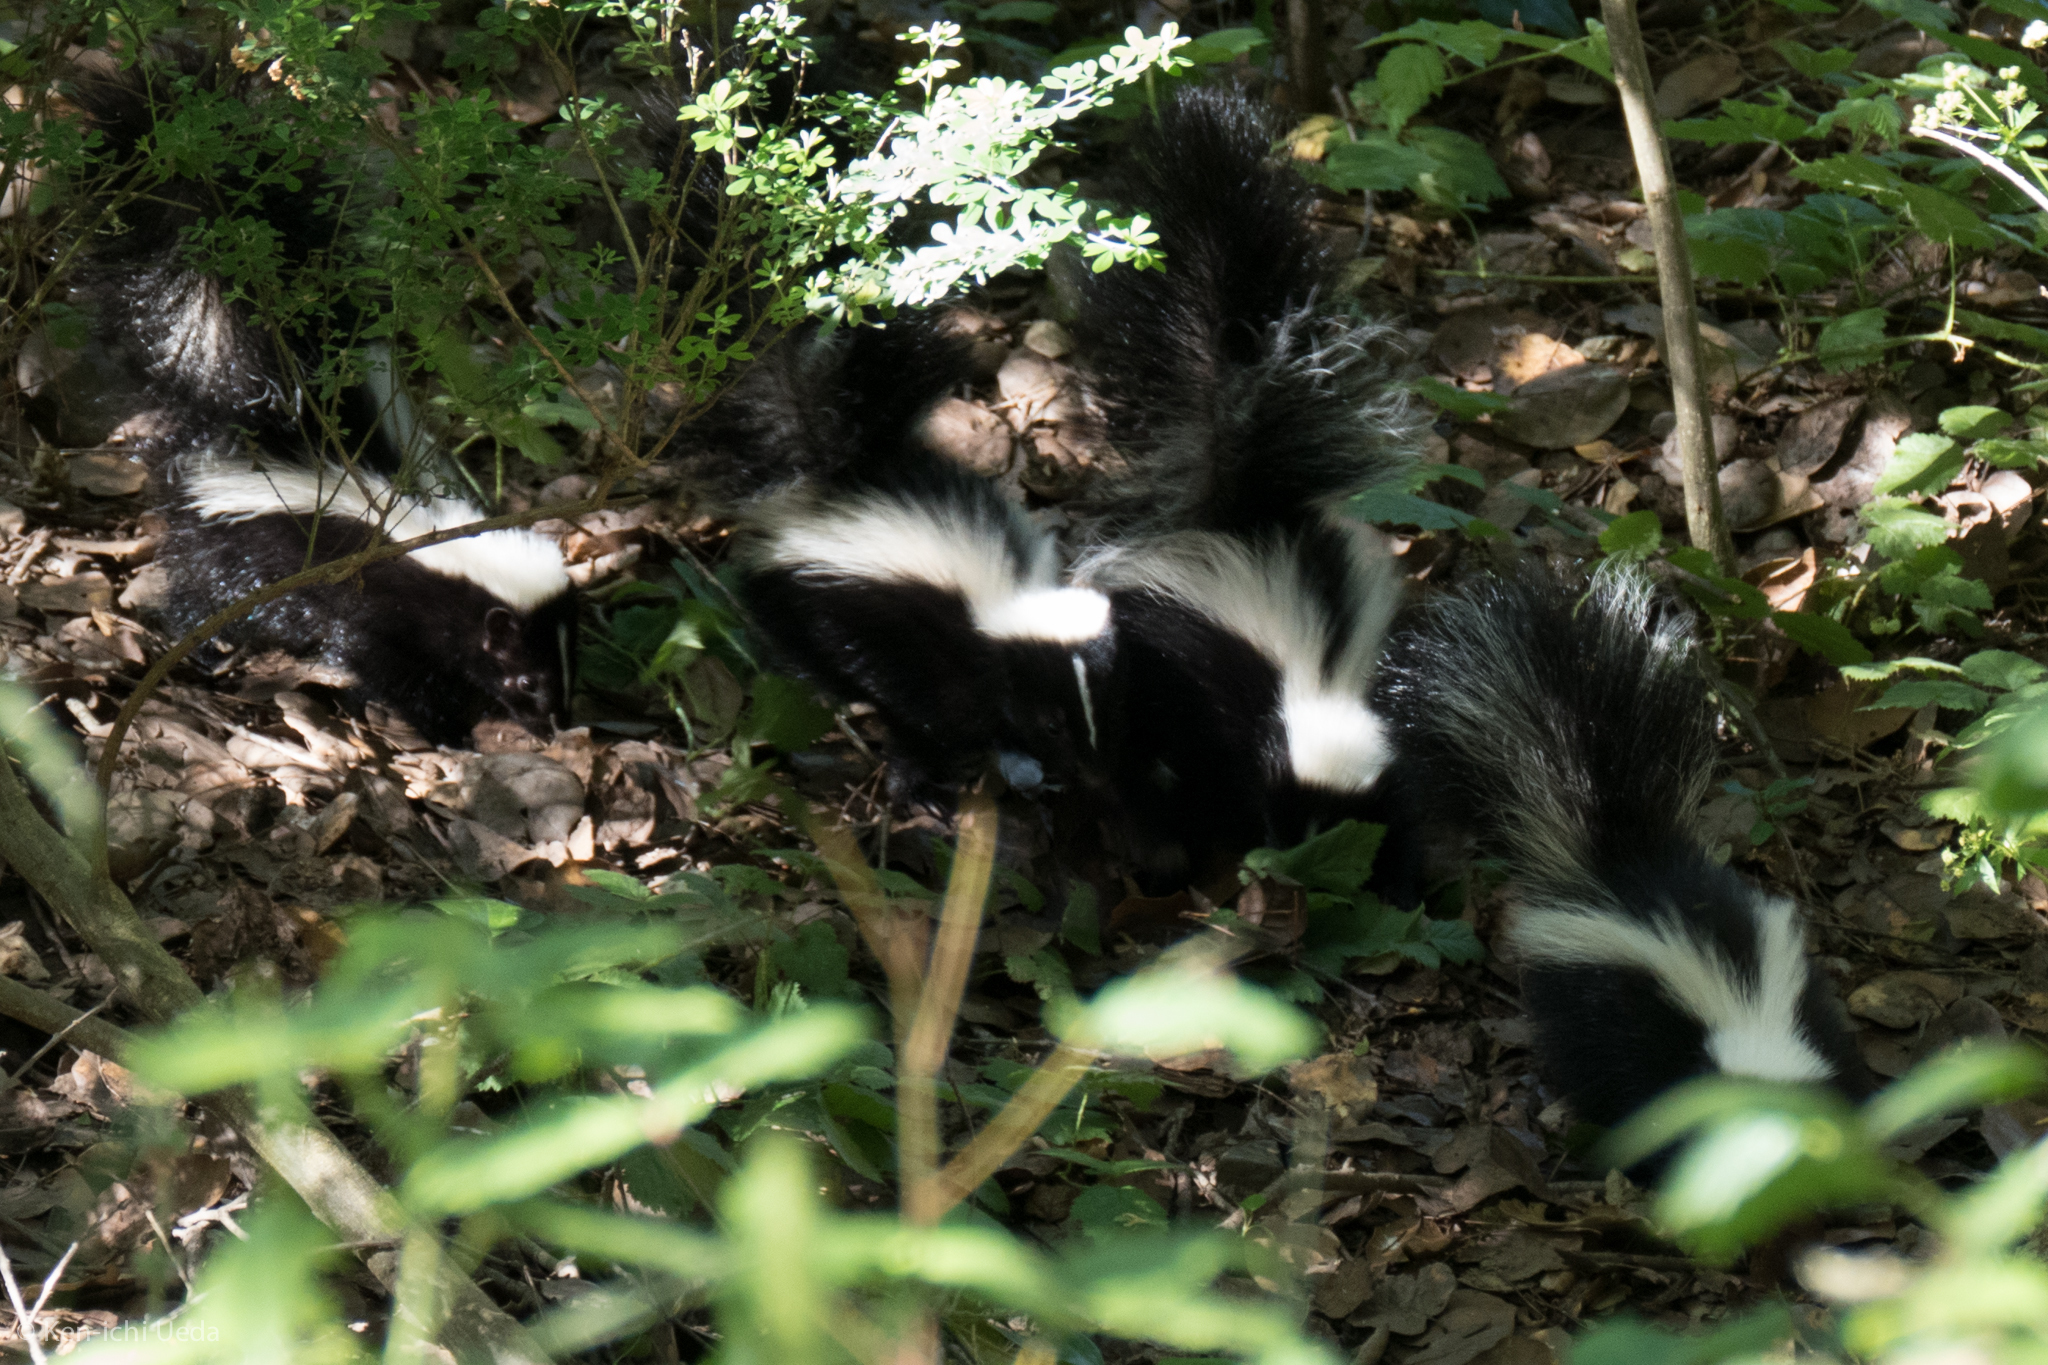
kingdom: Animalia
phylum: Chordata
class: Mammalia
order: Carnivora
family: Mephitidae
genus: Mephitis
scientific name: Mephitis mephitis
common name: Striped skunk
